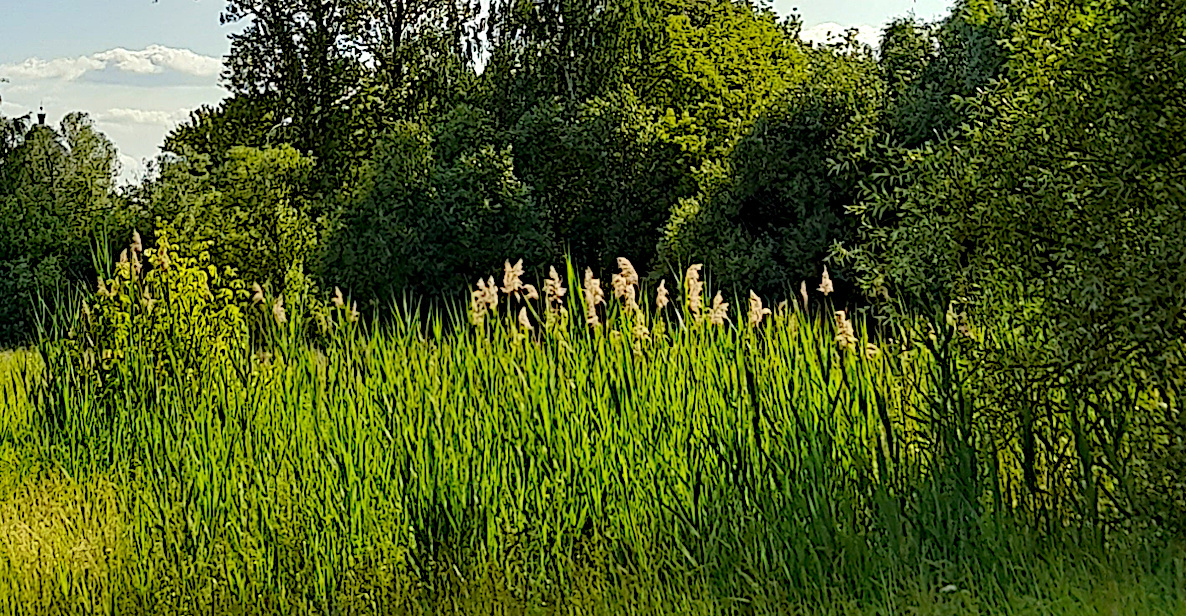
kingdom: Plantae
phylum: Tracheophyta
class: Liliopsida
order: Poales
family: Poaceae
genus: Phragmites
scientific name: Phragmites australis
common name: Common reed
